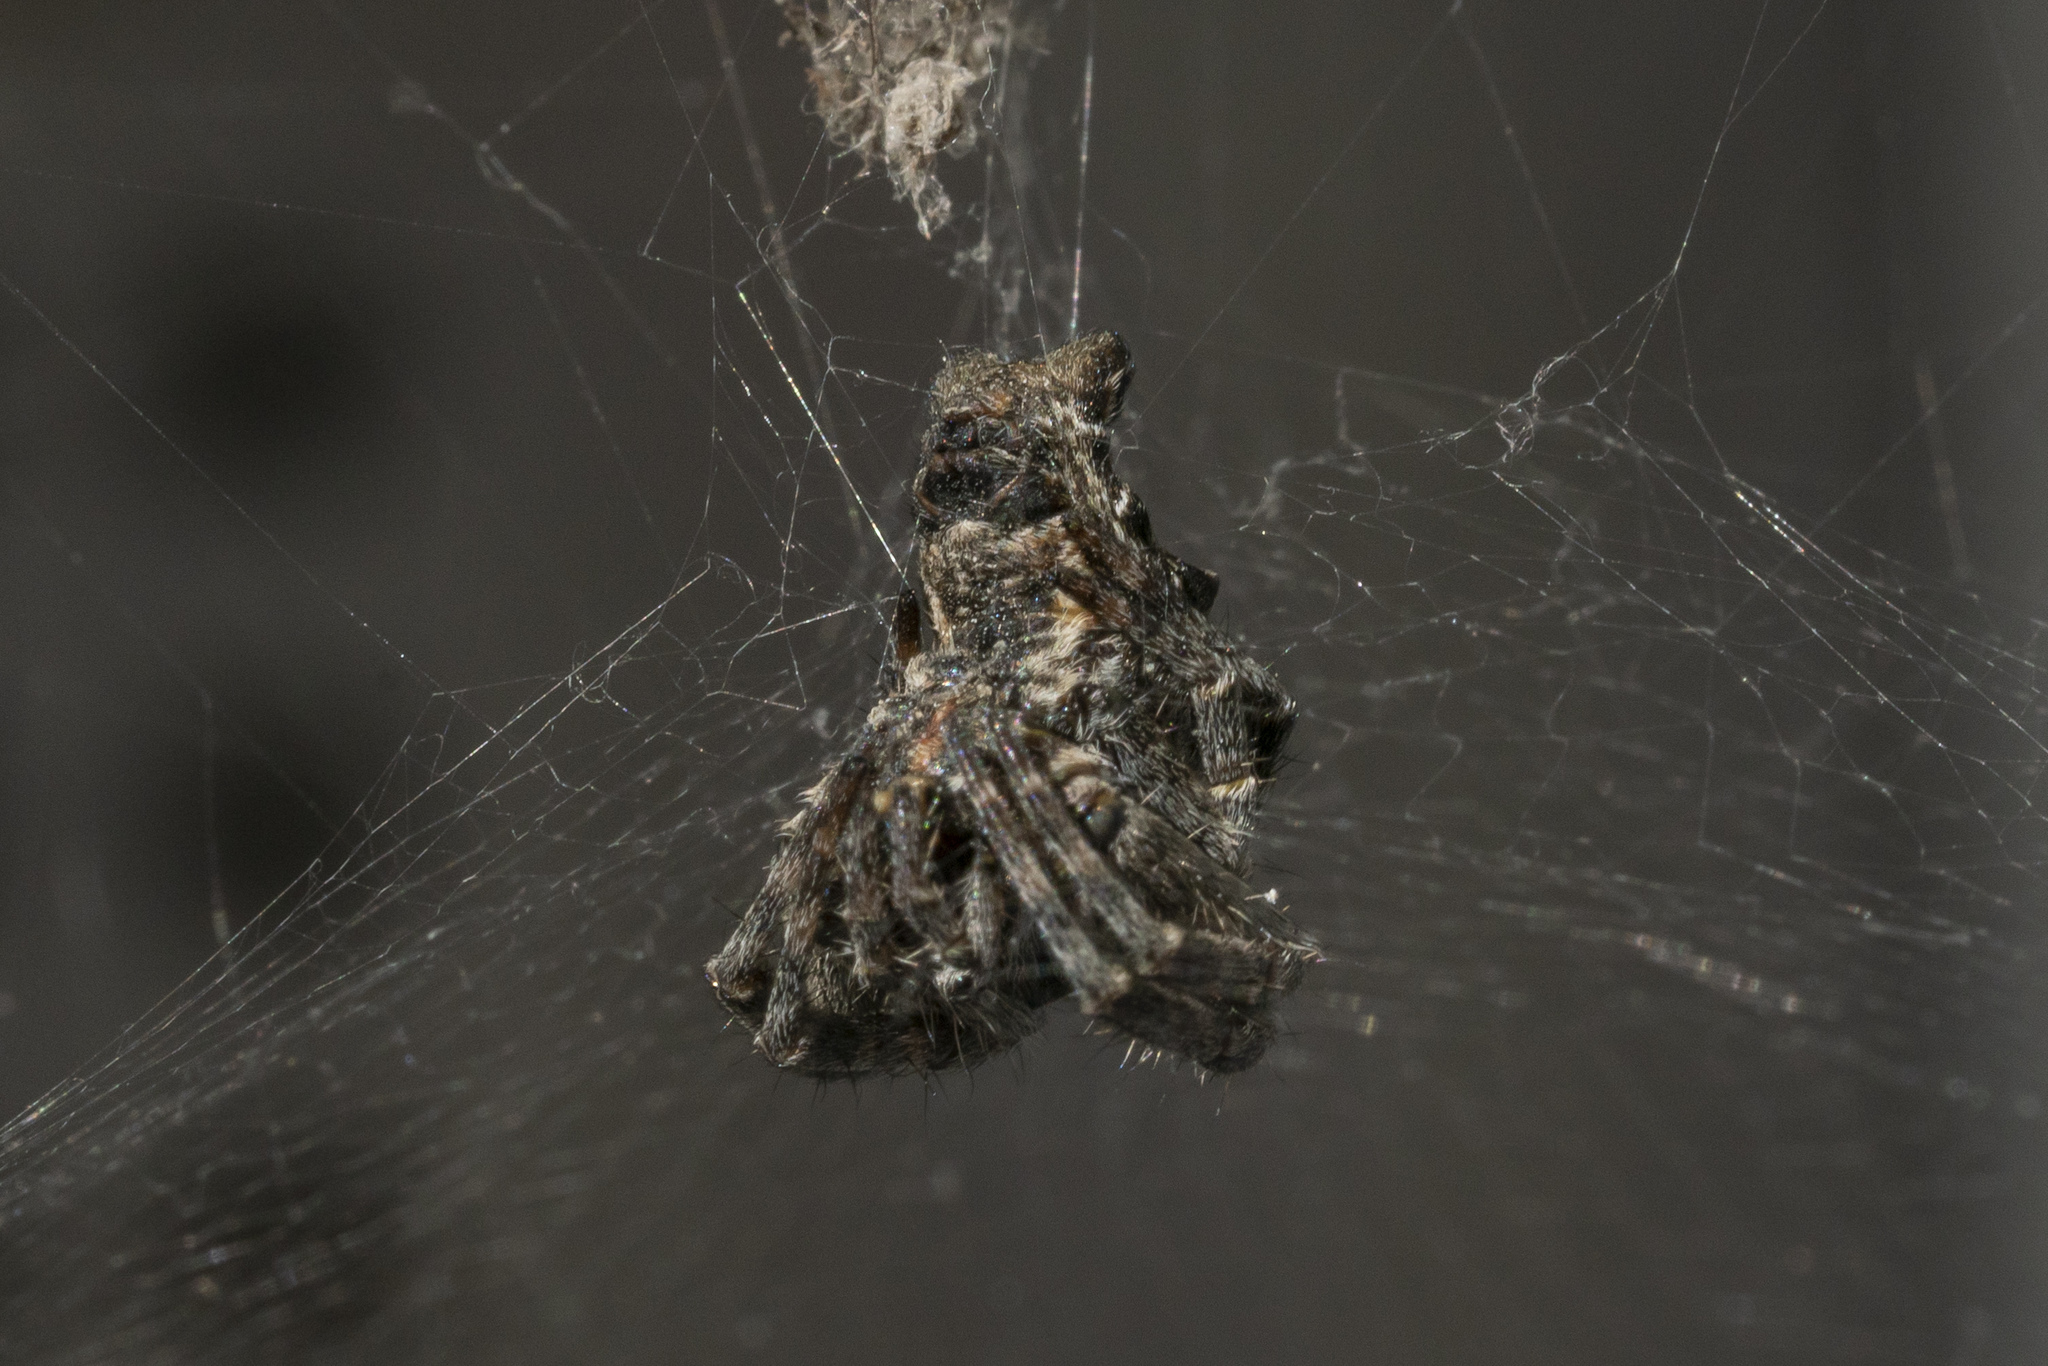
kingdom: Animalia
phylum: Arthropoda
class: Arachnida
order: Araneae
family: Araneidae
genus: Cyrtophora
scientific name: Cyrtophora citricola
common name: Orb weavers
